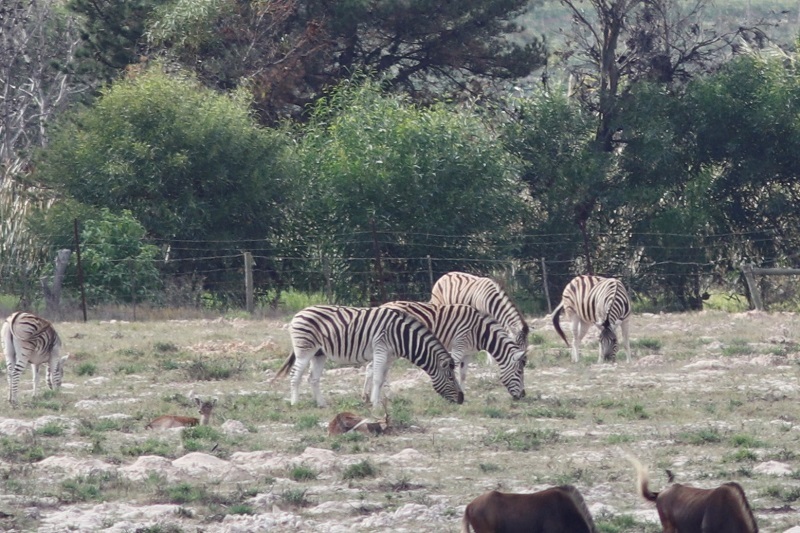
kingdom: Animalia
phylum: Chordata
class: Mammalia
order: Perissodactyla
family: Equidae
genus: Equus
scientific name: Equus quagga
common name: Plains zebra
